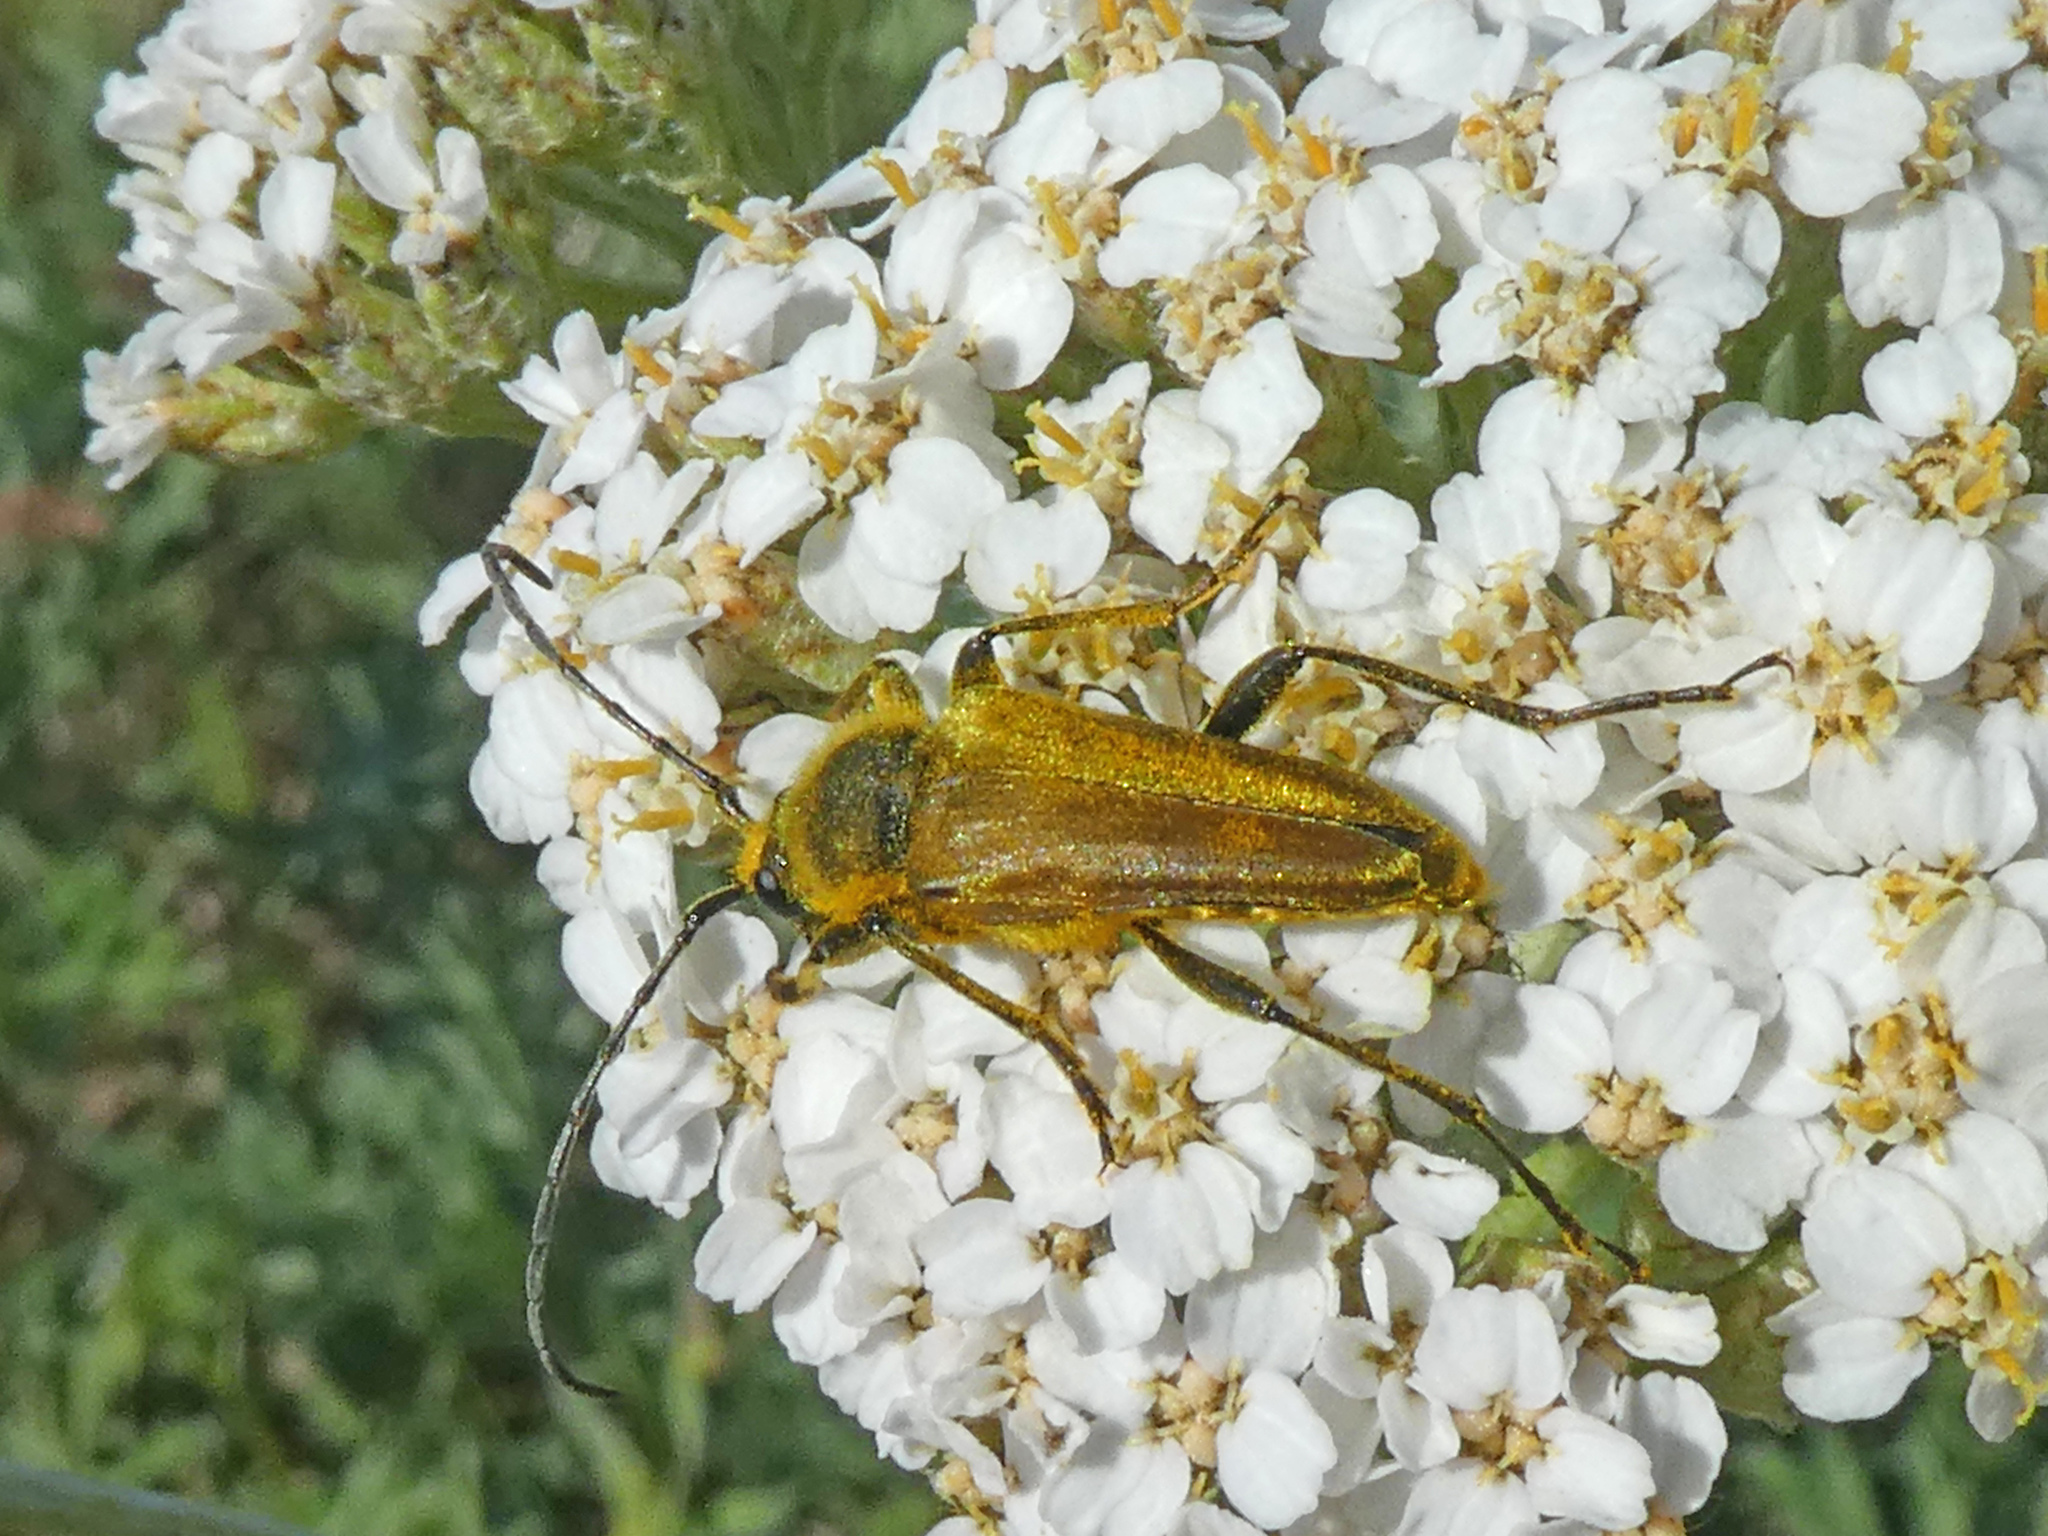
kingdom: Animalia
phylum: Arthropoda
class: Insecta
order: Coleoptera
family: Cerambycidae
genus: Cosmosalia
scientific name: Cosmosalia chrysocoma
